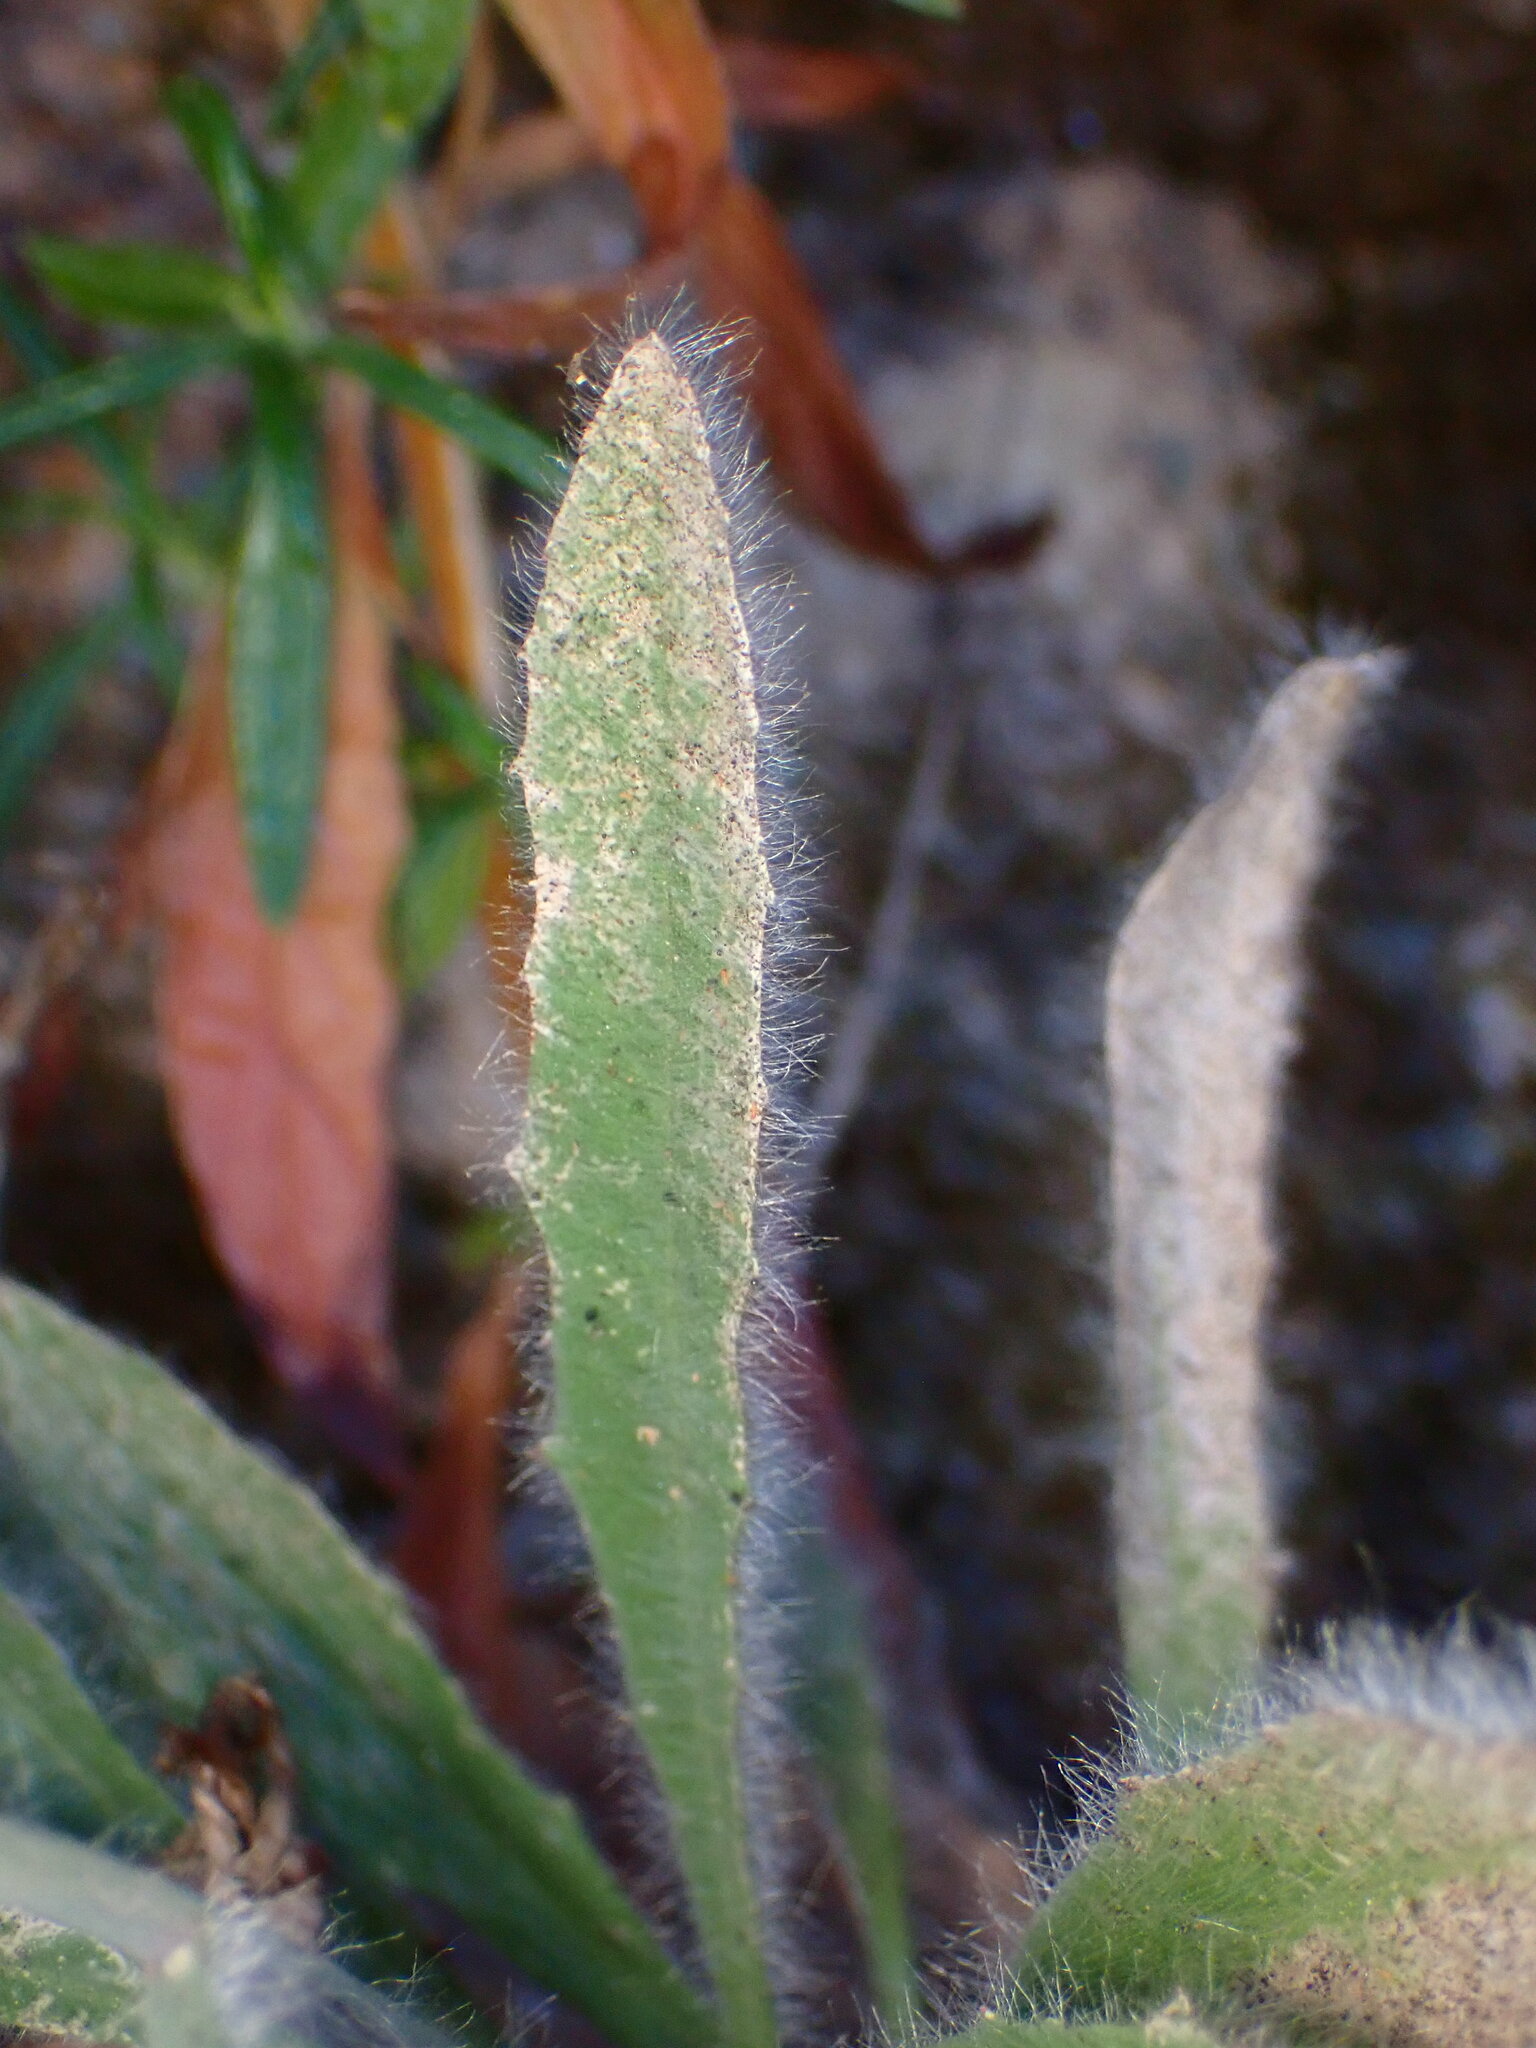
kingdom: Plantae
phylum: Tracheophyta
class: Magnoliopsida
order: Asterales
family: Asteraceae
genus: Hieracium
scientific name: Hieracium argutum
